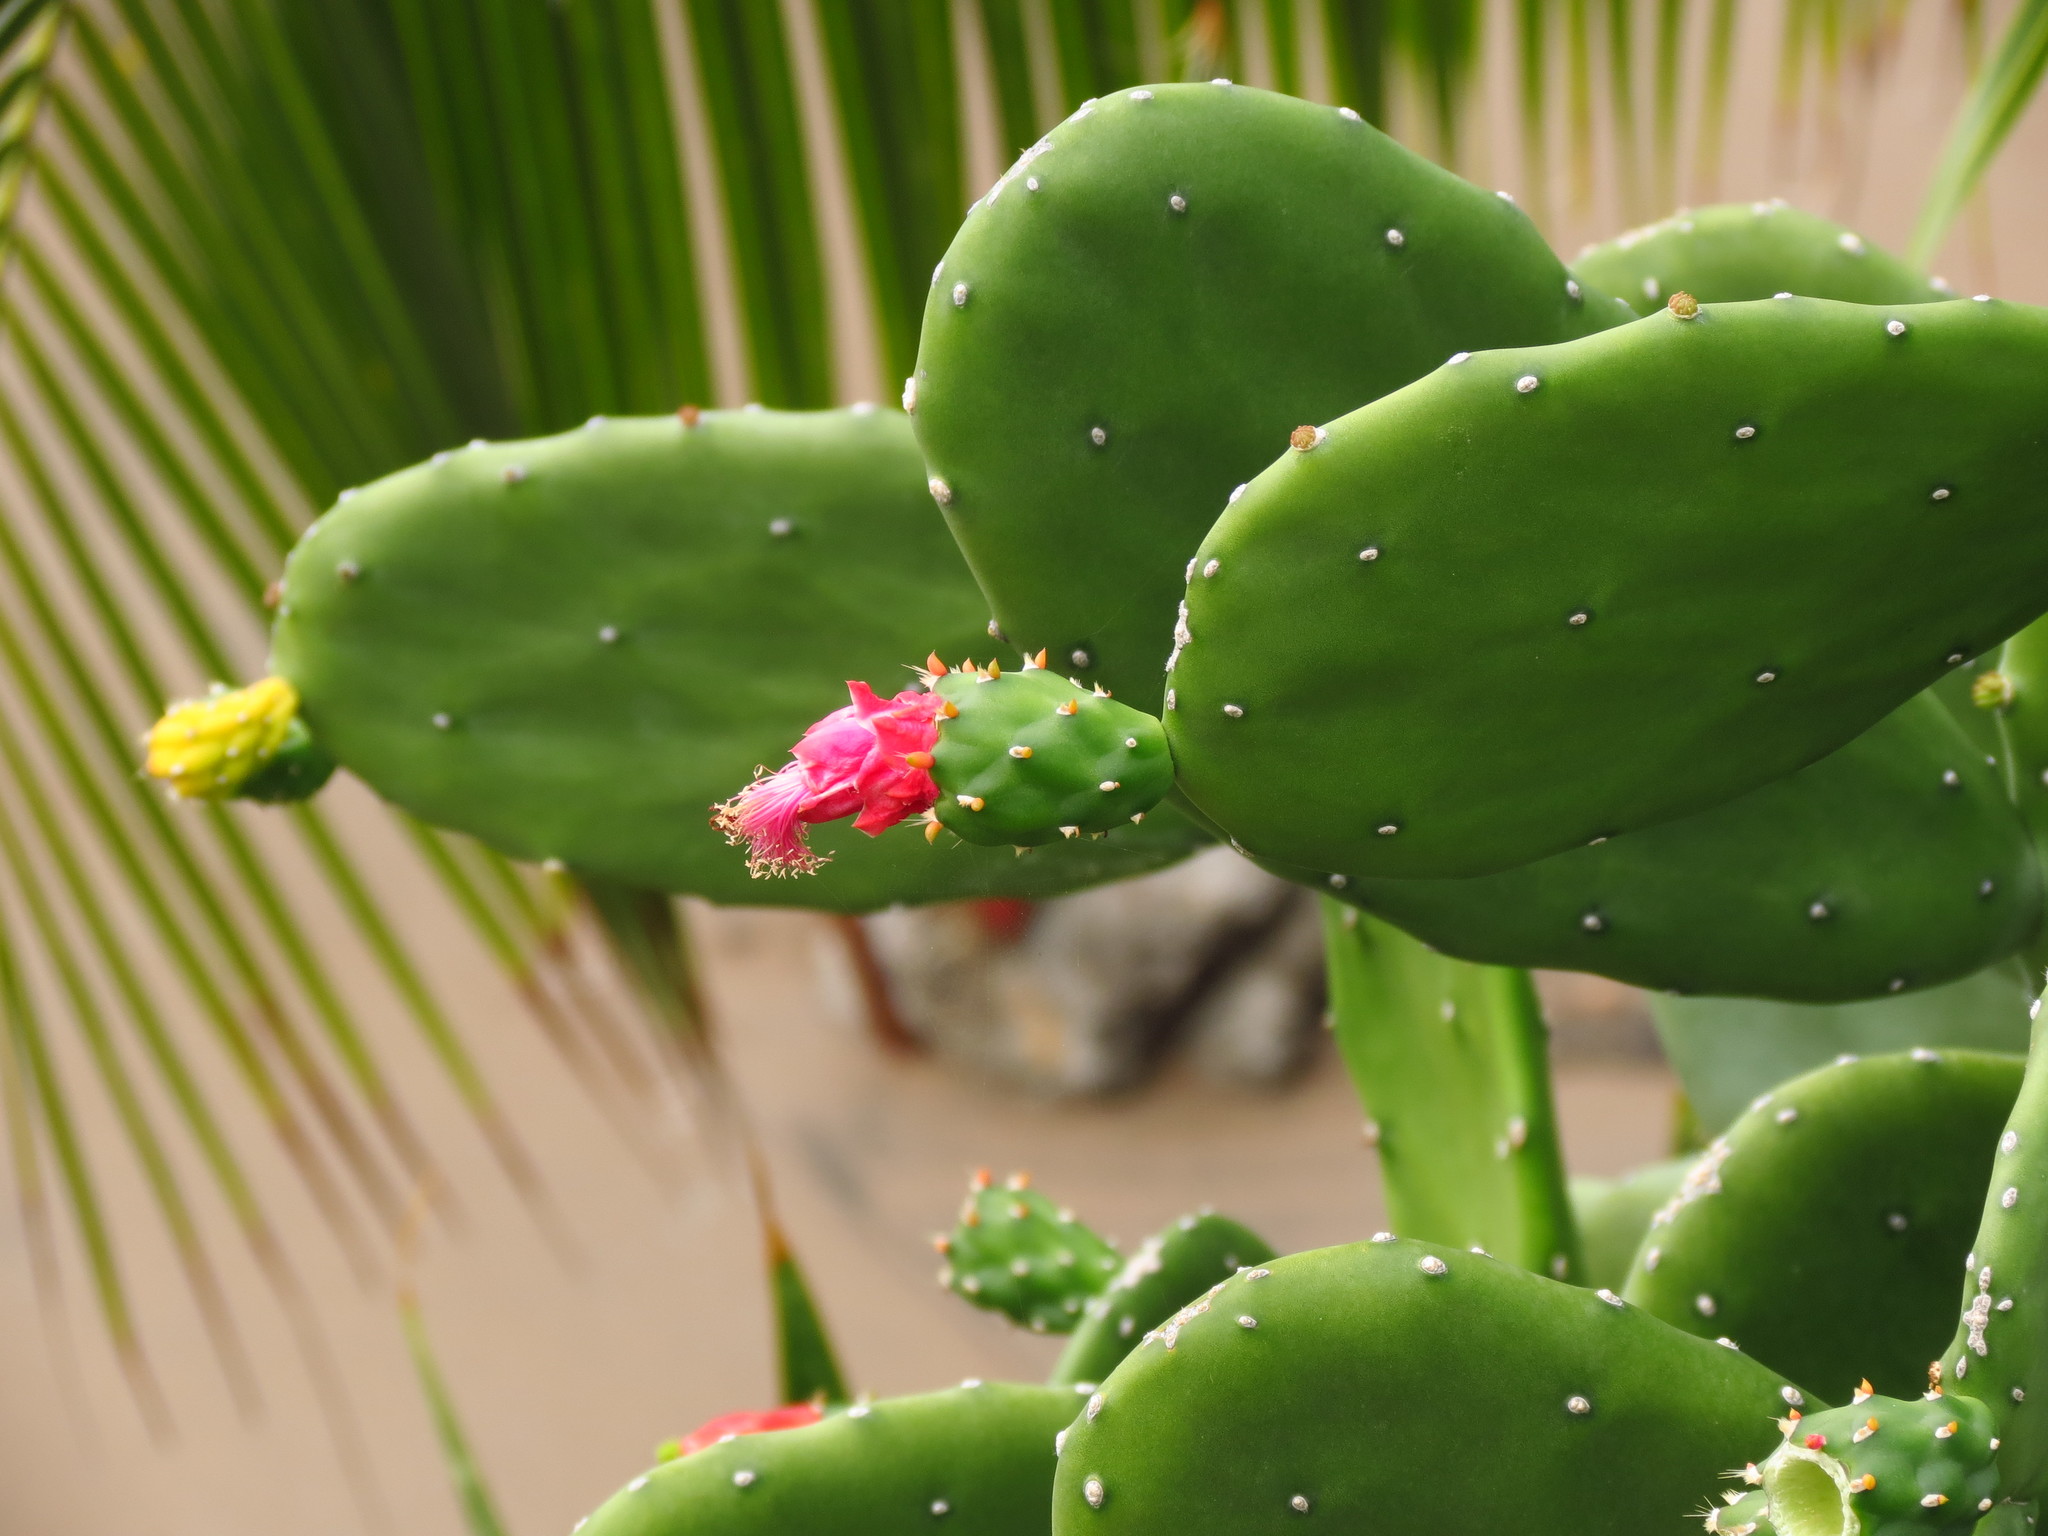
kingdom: Plantae
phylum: Tracheophyta
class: Magnoliopsida
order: Caryophyllales
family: Cactaceae
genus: Opuntia
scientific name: Opuntia cochenillifera
